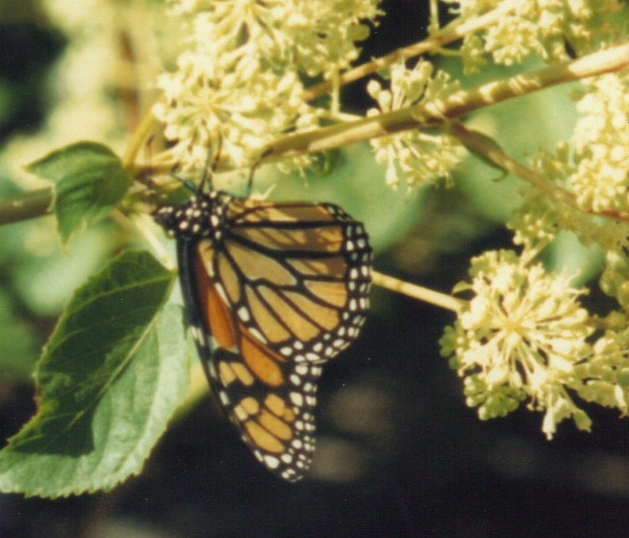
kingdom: Animalia
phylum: Arthropoda
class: Insecta
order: Lepidoptera
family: Nymphalidae
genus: Danaus
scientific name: Danaus plexippus
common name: Monarch
